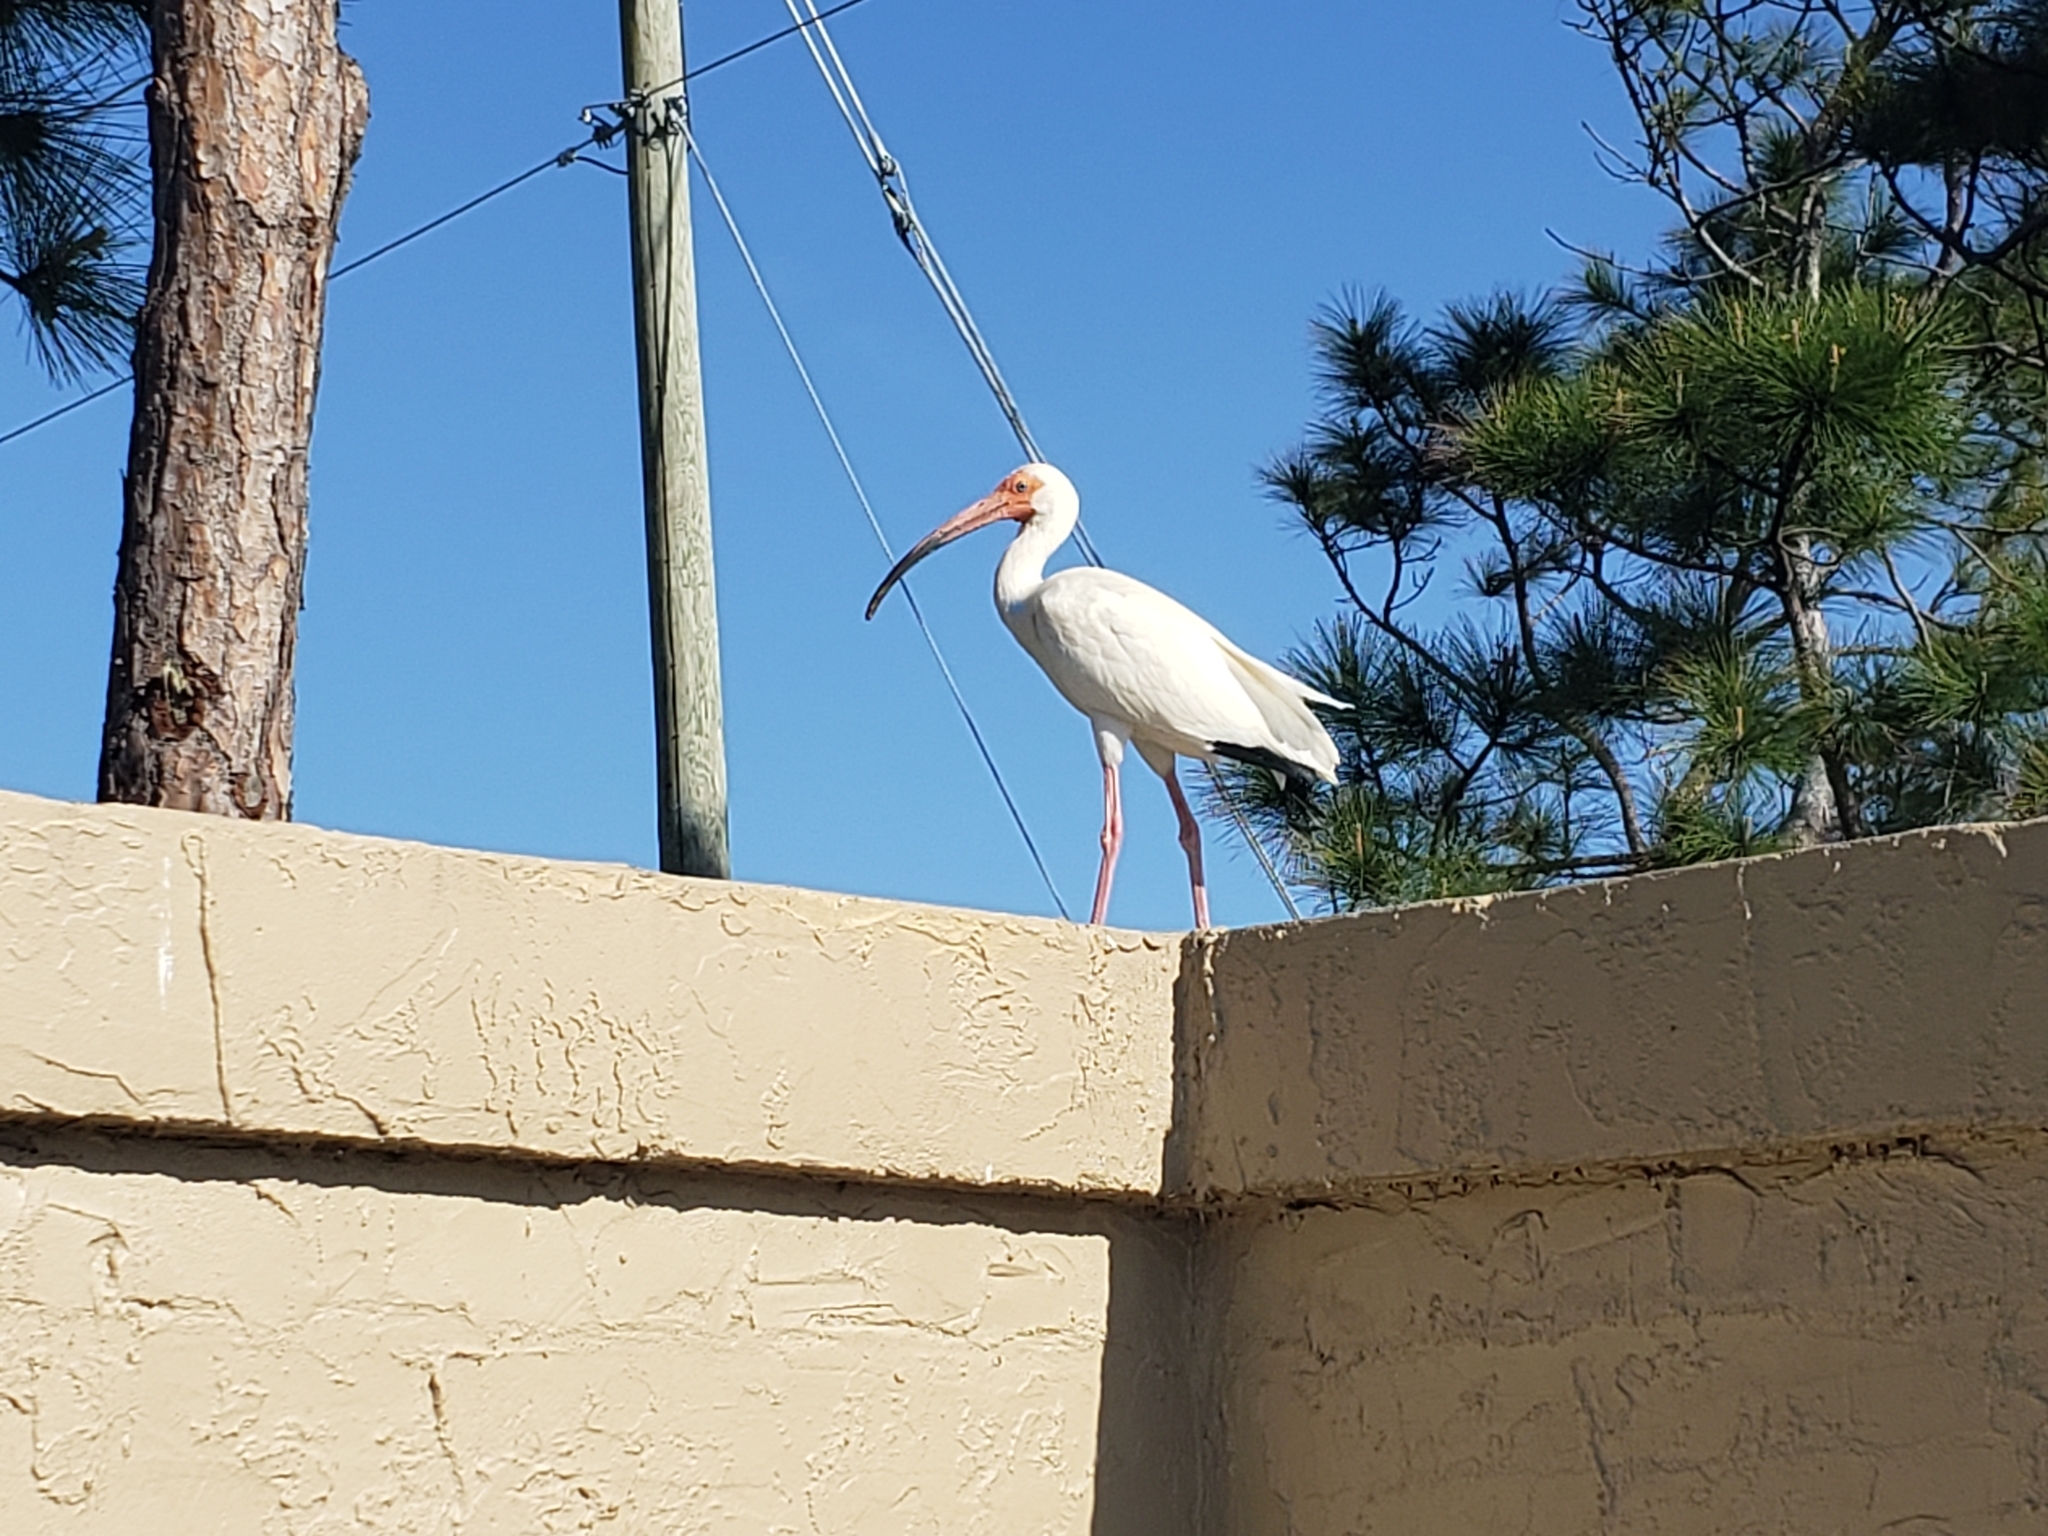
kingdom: Animalia
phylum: Chordata
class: Aves
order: Pelecaniformes
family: Threskiornithidae
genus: Eudocimus
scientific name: Eudocimus albus
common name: White ibis
